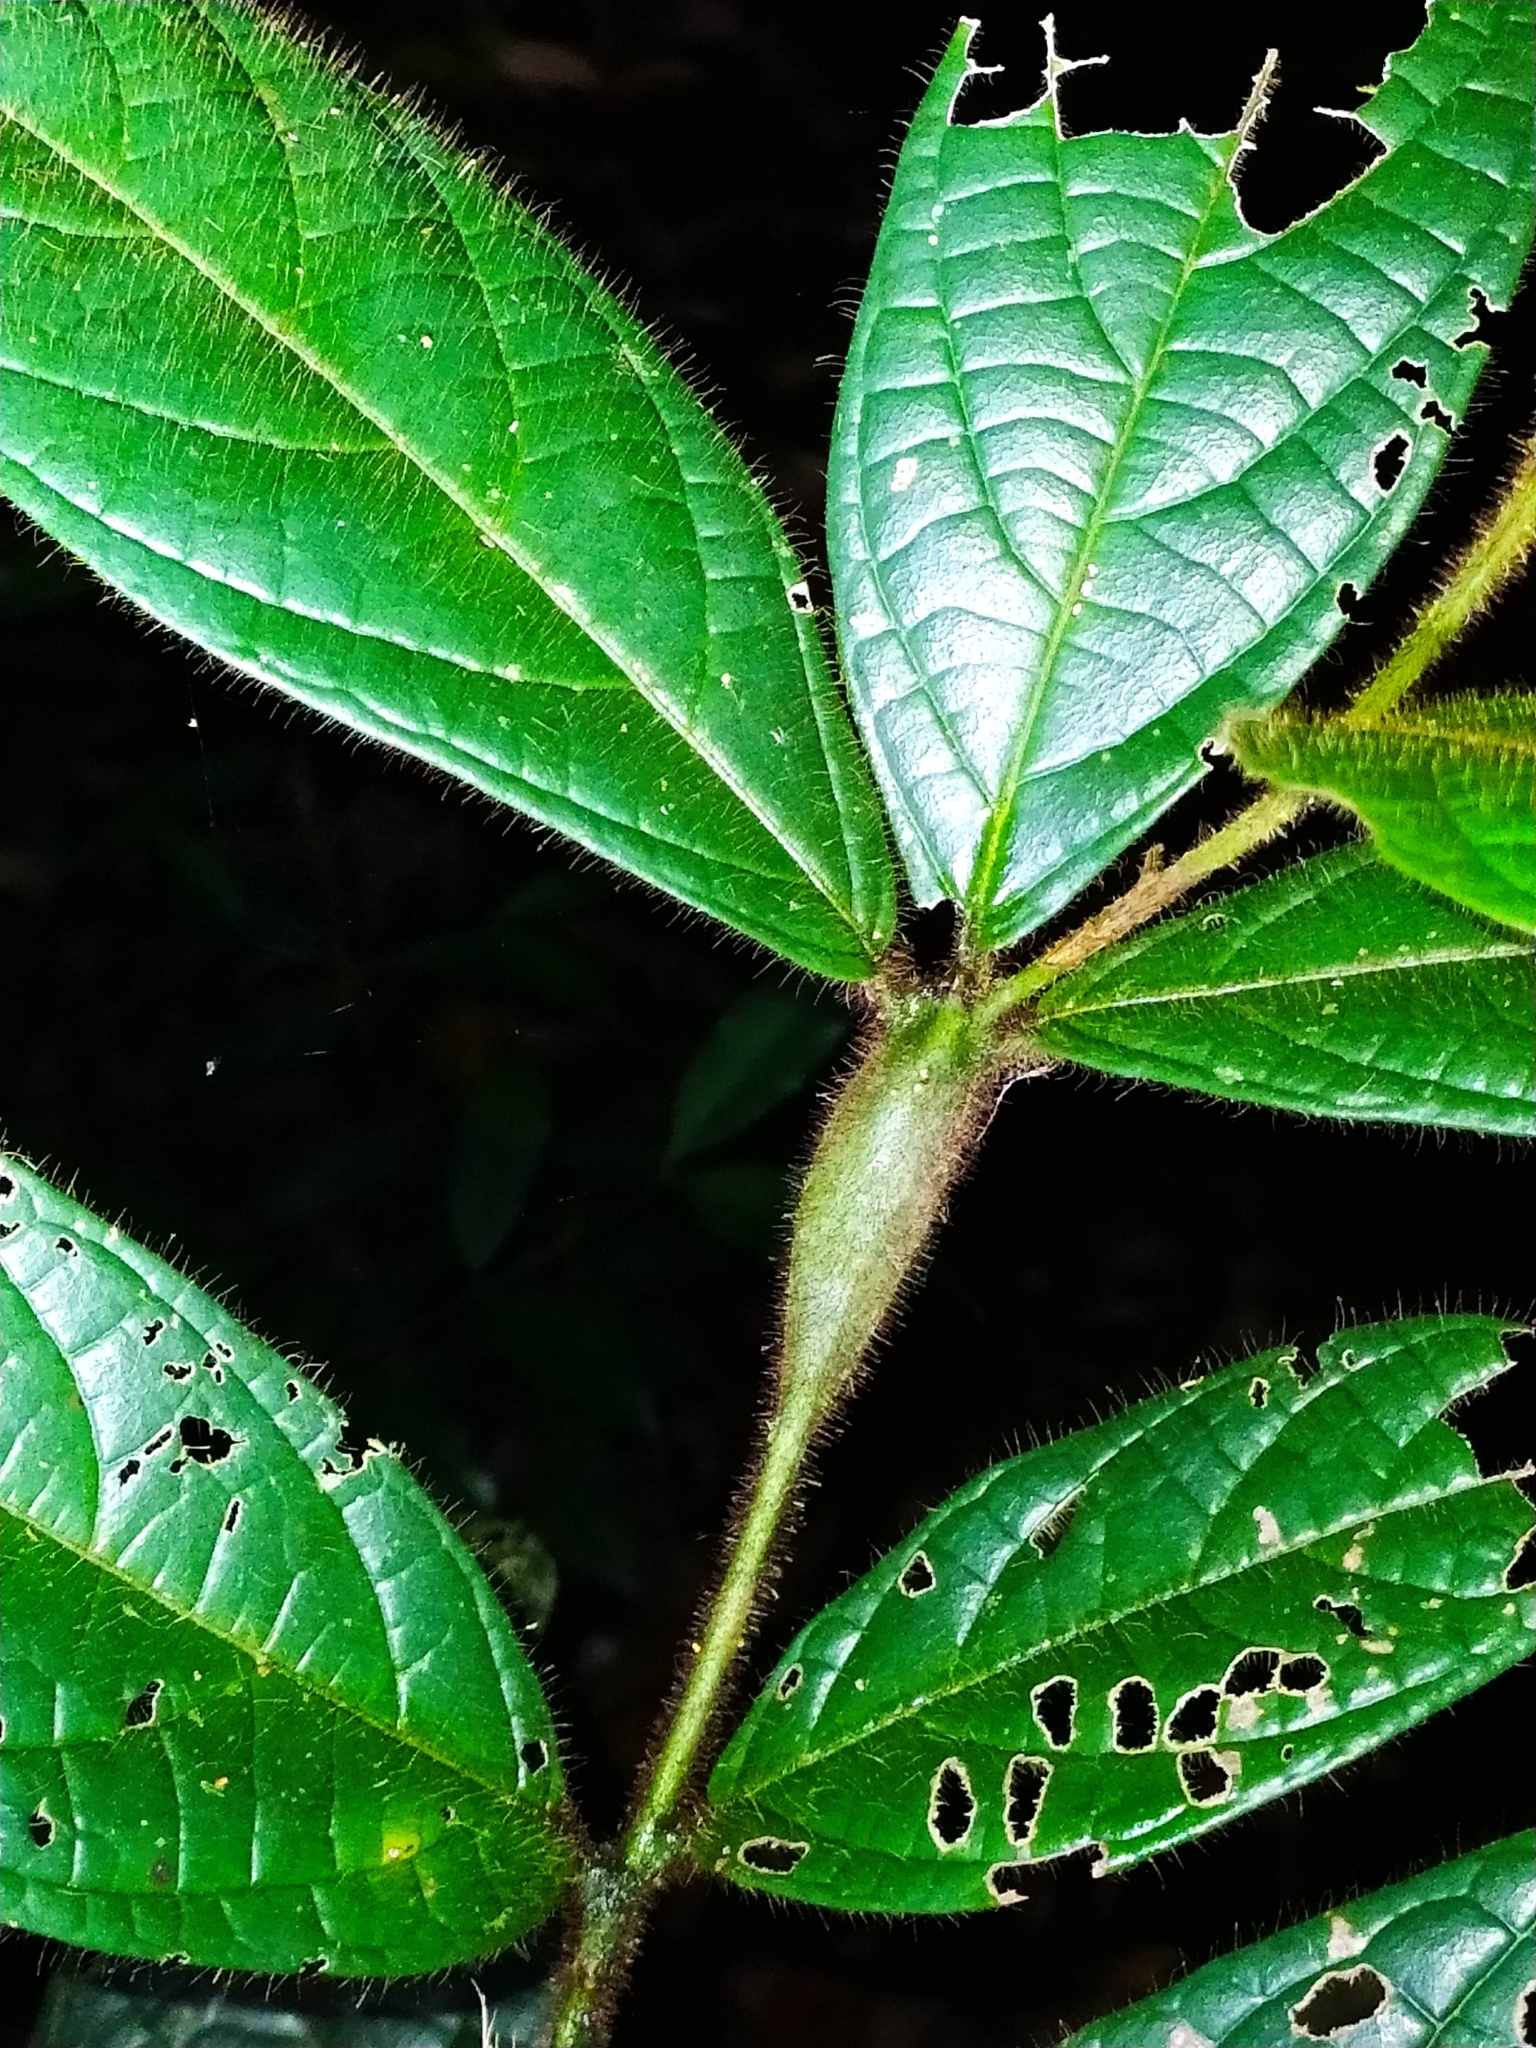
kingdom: Plantae
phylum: Tracheophyta
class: Magnoliopsida
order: Boraginales
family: Cordiaceae
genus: Cordia
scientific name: Cordia nodosa
